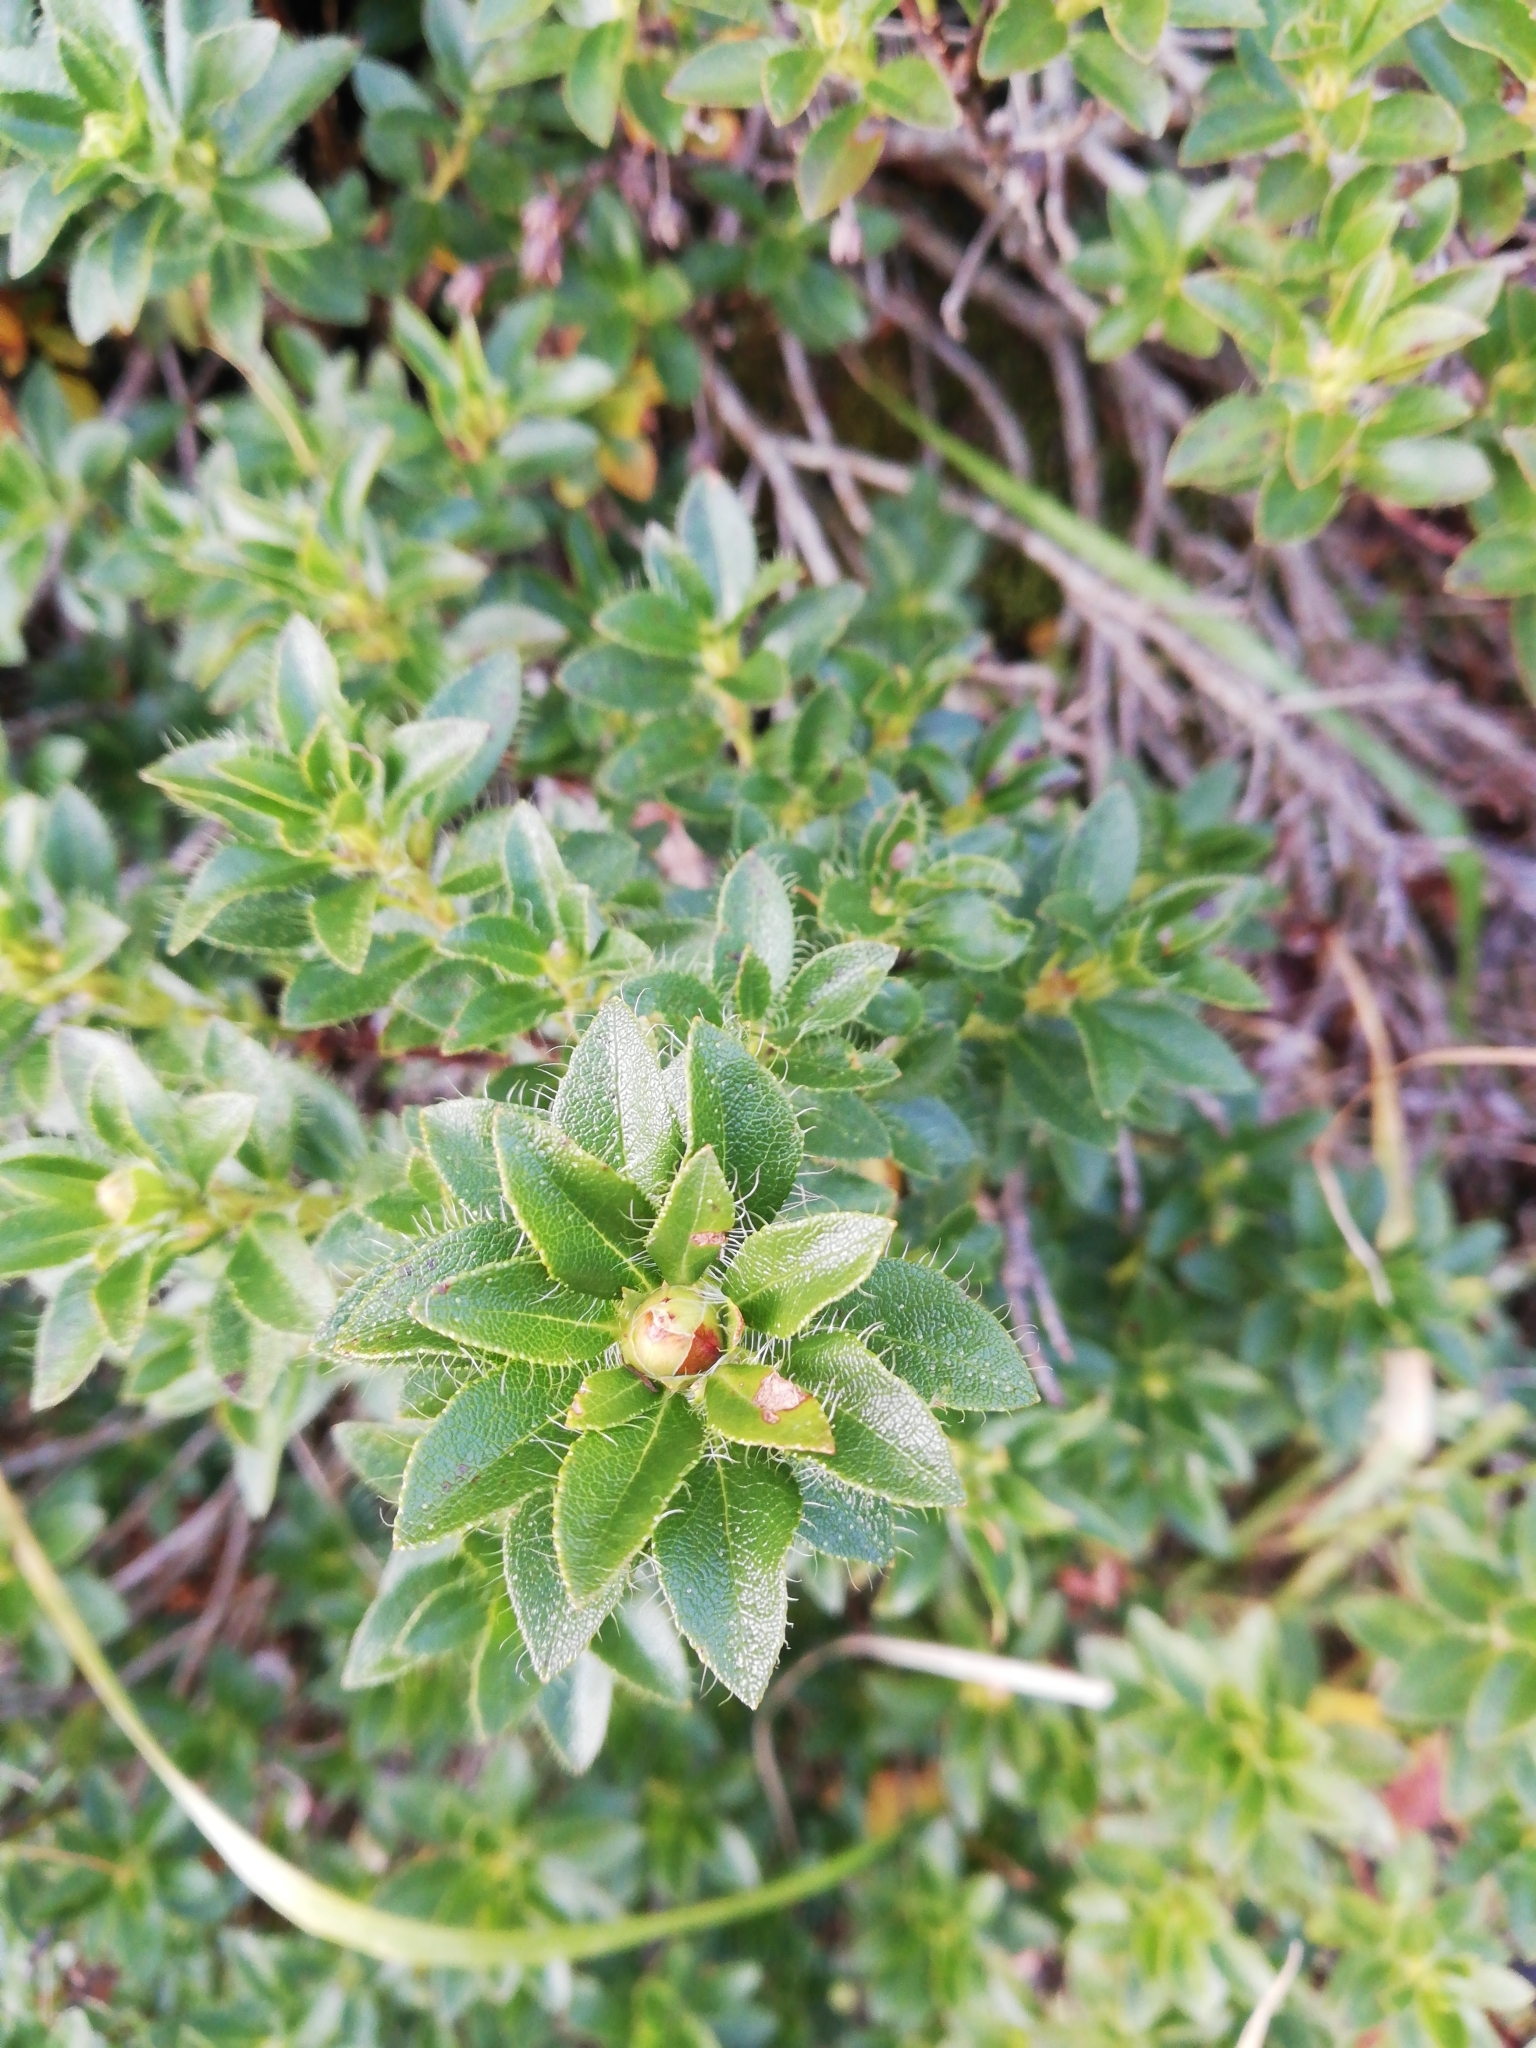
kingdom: Plantae
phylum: Tracheophyta
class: Magnoliopsida
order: Ericales
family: Ericaceae
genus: Rhododendron
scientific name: Rhododendron hirsutum
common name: Hairy alpenrose
